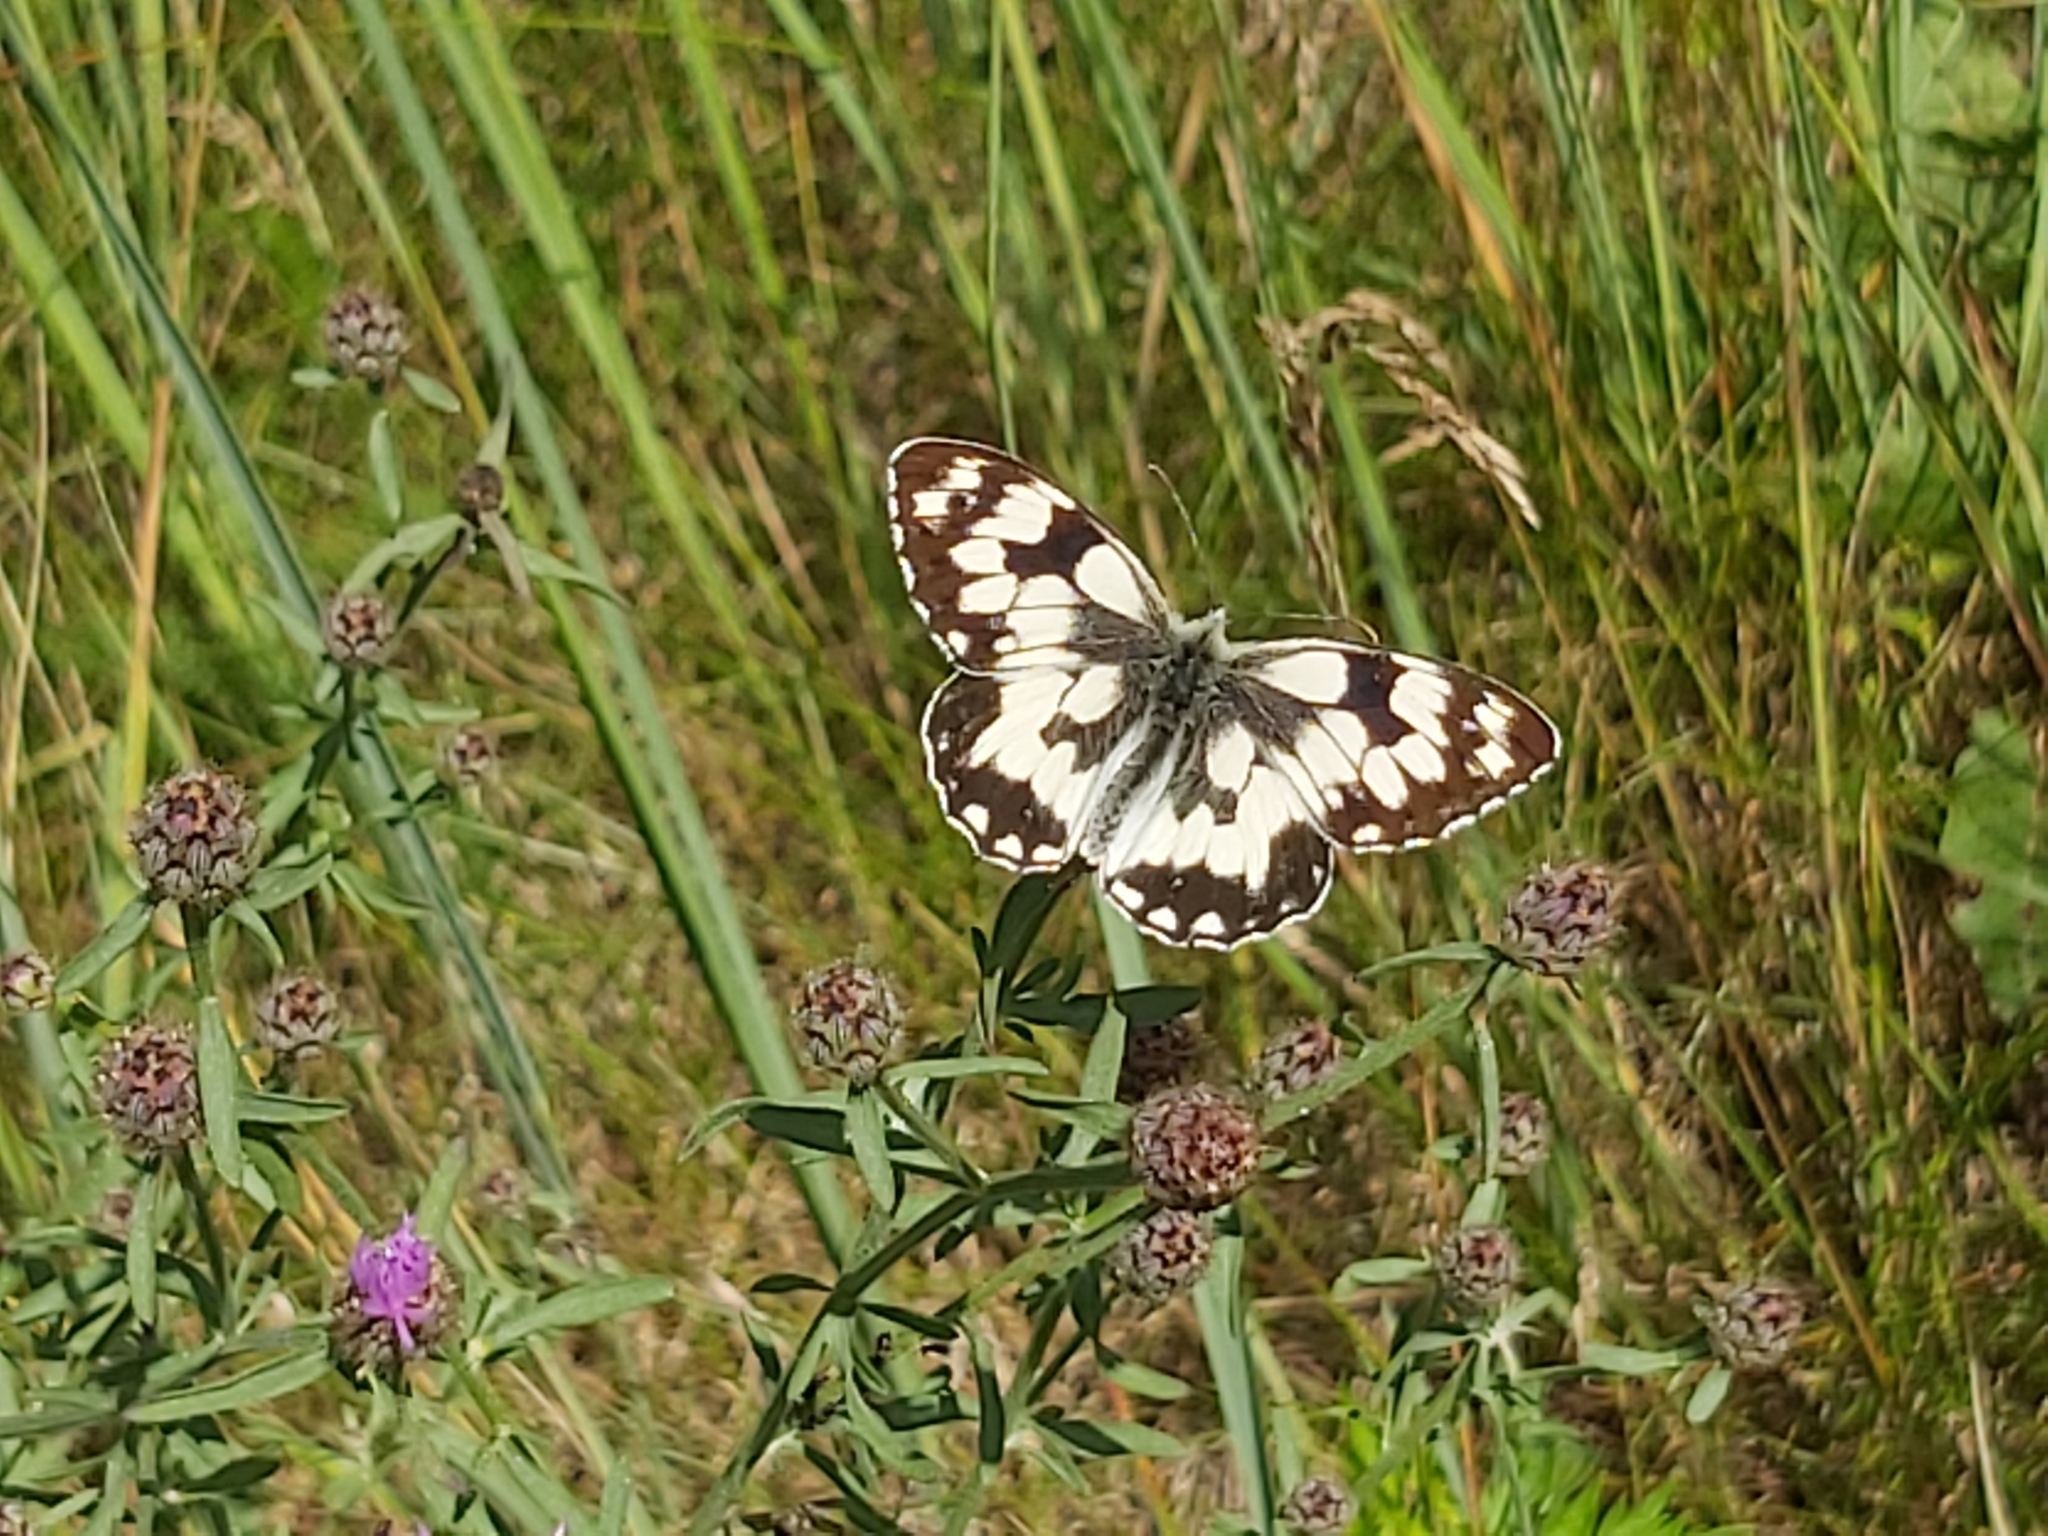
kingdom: Animalia
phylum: Arthropoda
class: Insecta
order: Lepidoptera
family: Nymphalidae
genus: Melanargia
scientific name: Melanargia galathea
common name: Marbled white
